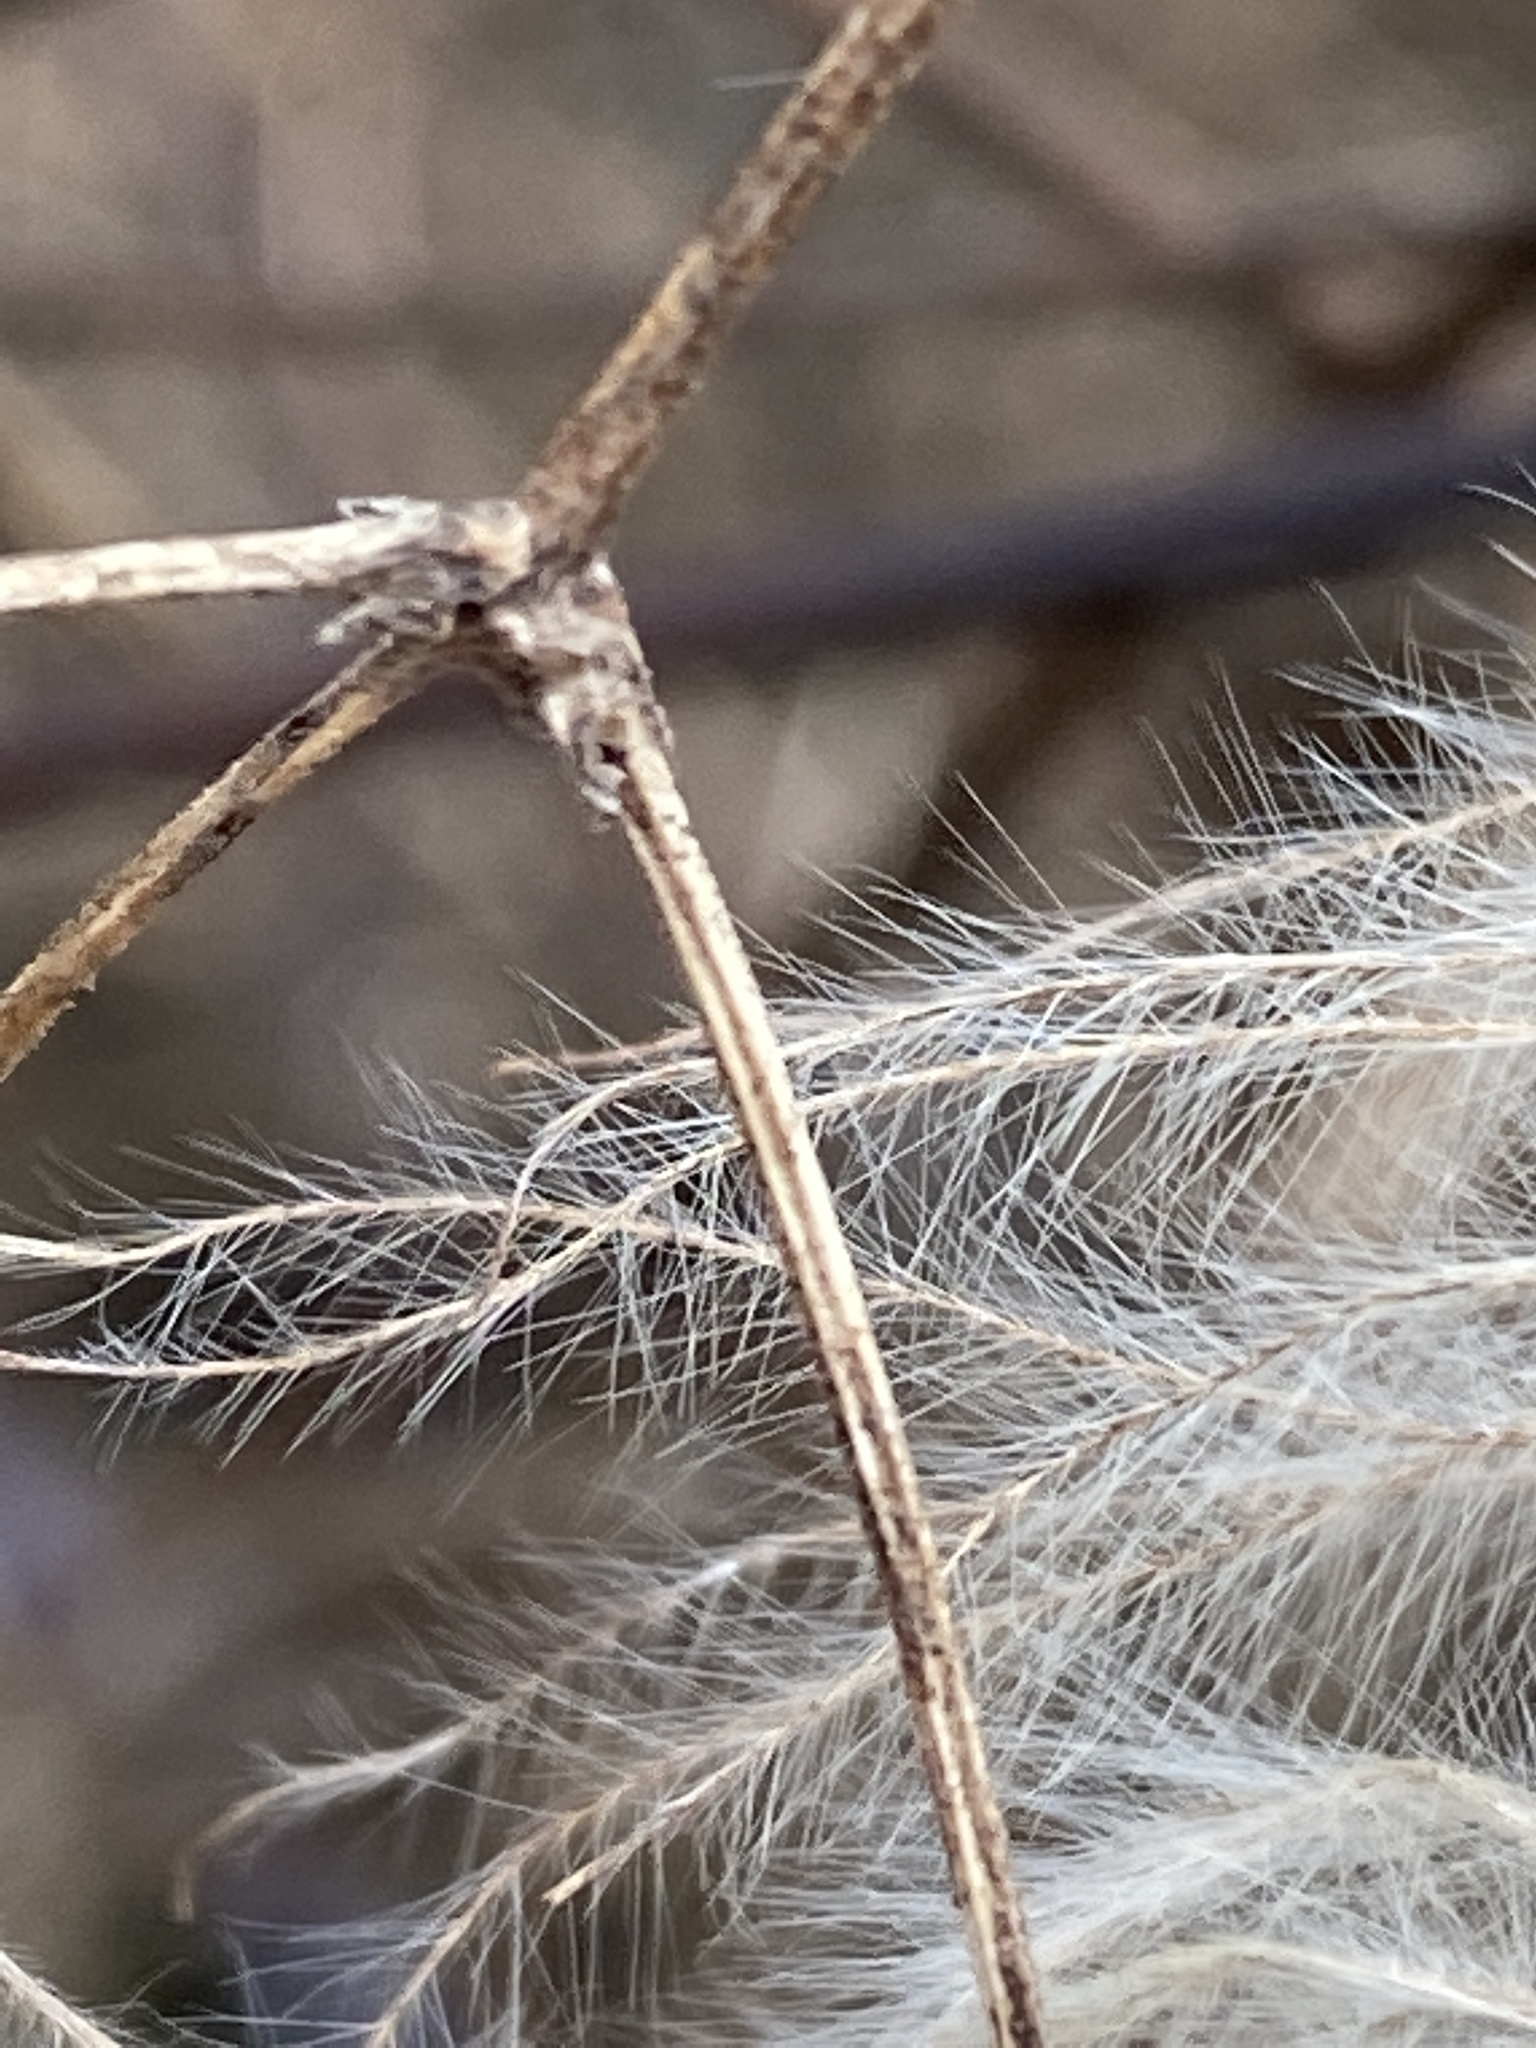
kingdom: Plantae
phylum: Tracheophyta
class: Magnoliopsida
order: Ranunculales
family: Ranunculaceae
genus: Clematis
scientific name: Clematis virginiana
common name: Virgin's-bower
